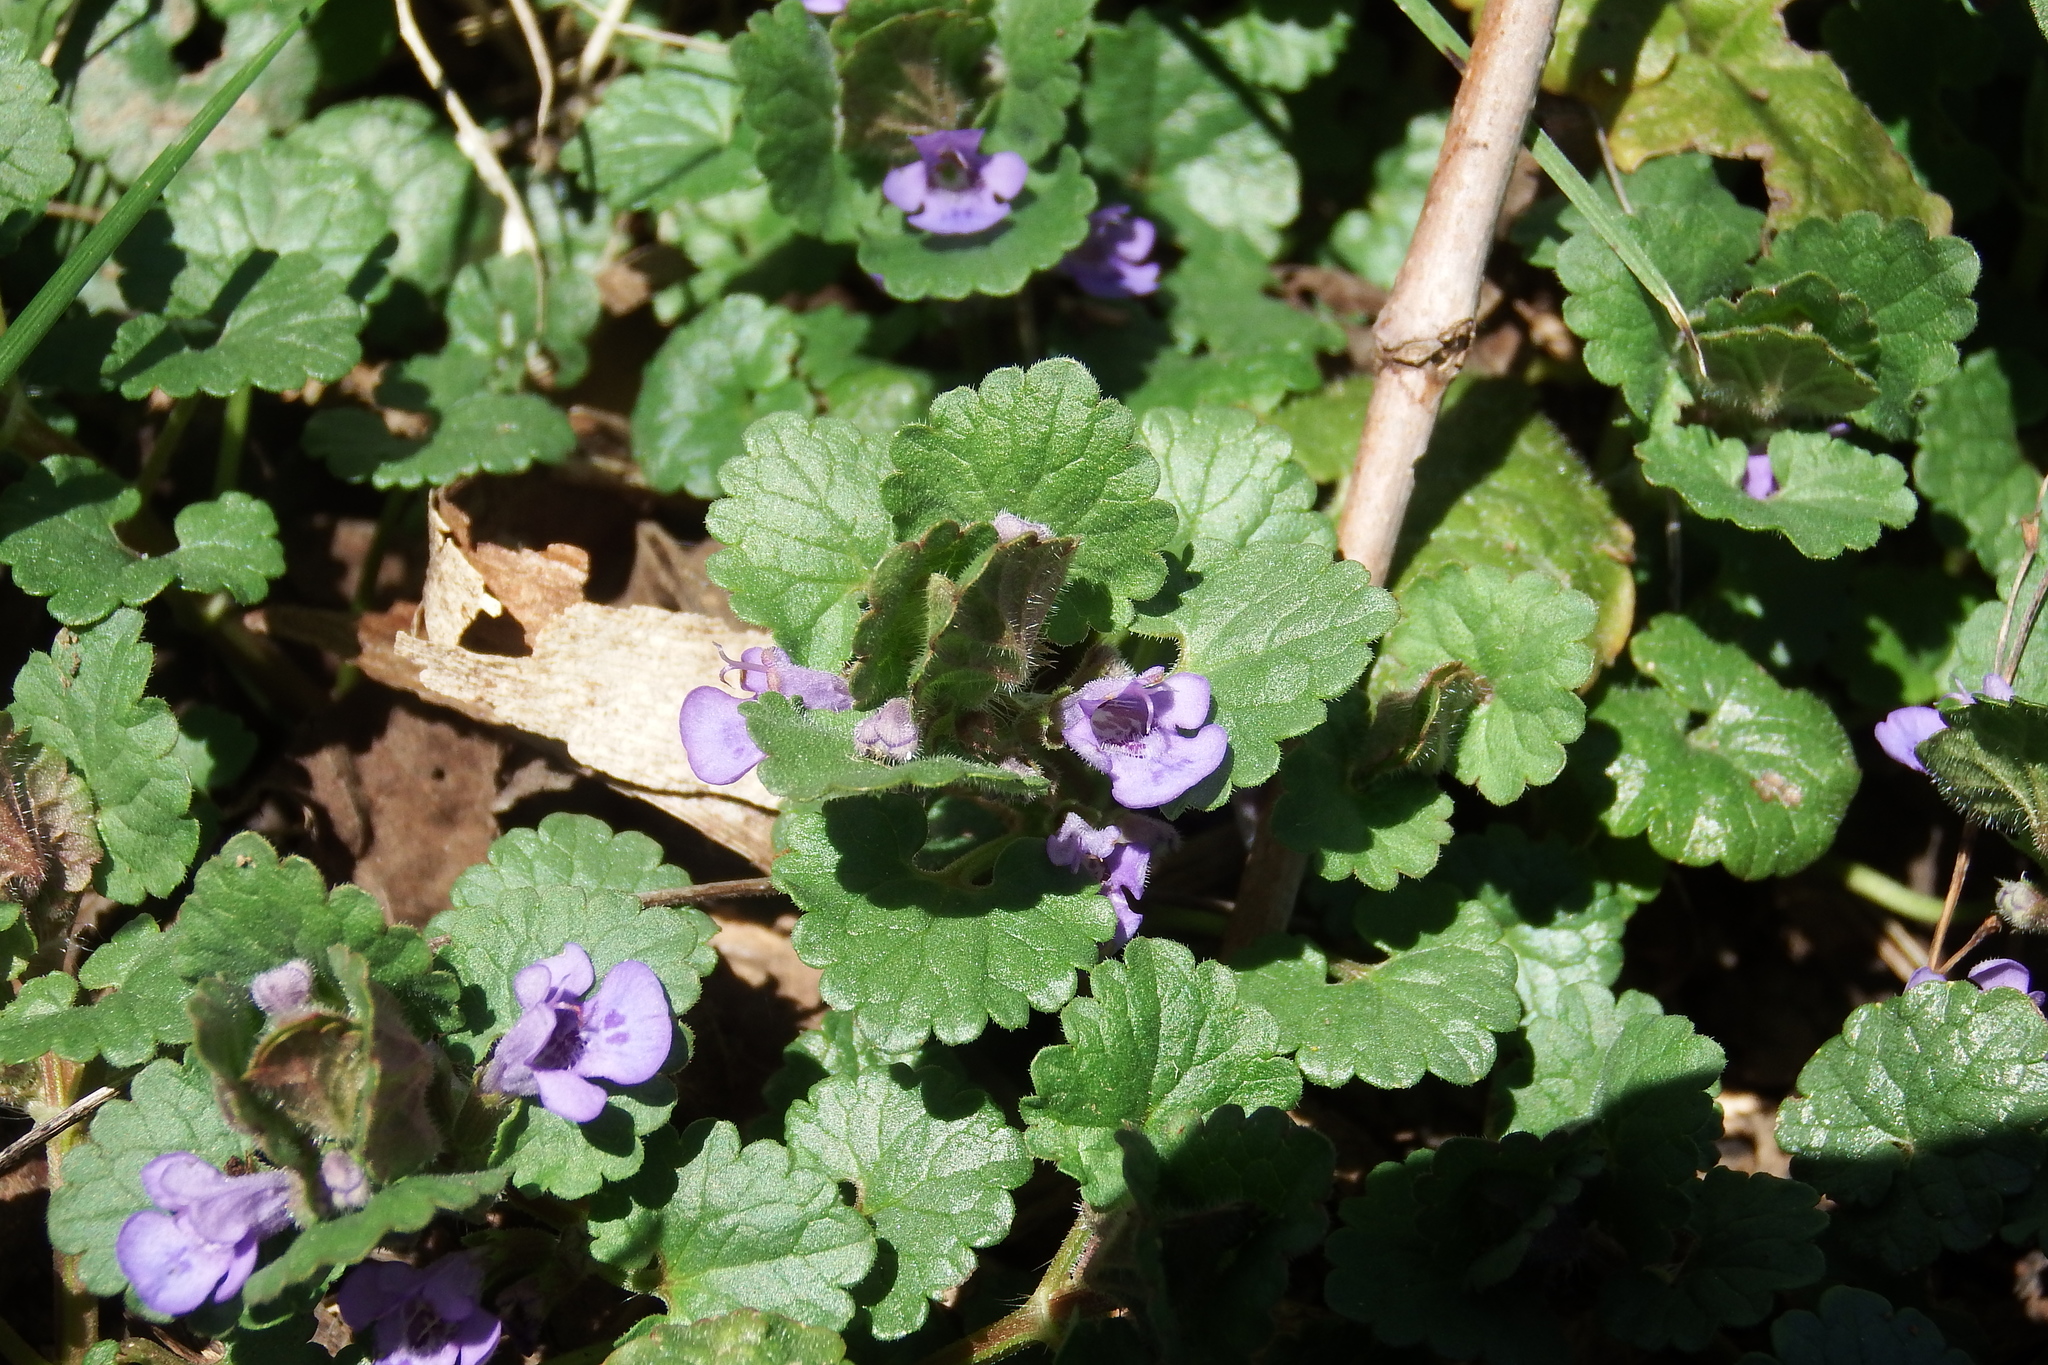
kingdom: Plantae
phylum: Tracheophyta
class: Magnoliopsida
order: Lamiales
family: Lamiaceae
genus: Glechoma
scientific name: Glechoma hederacea
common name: Ground ivy
